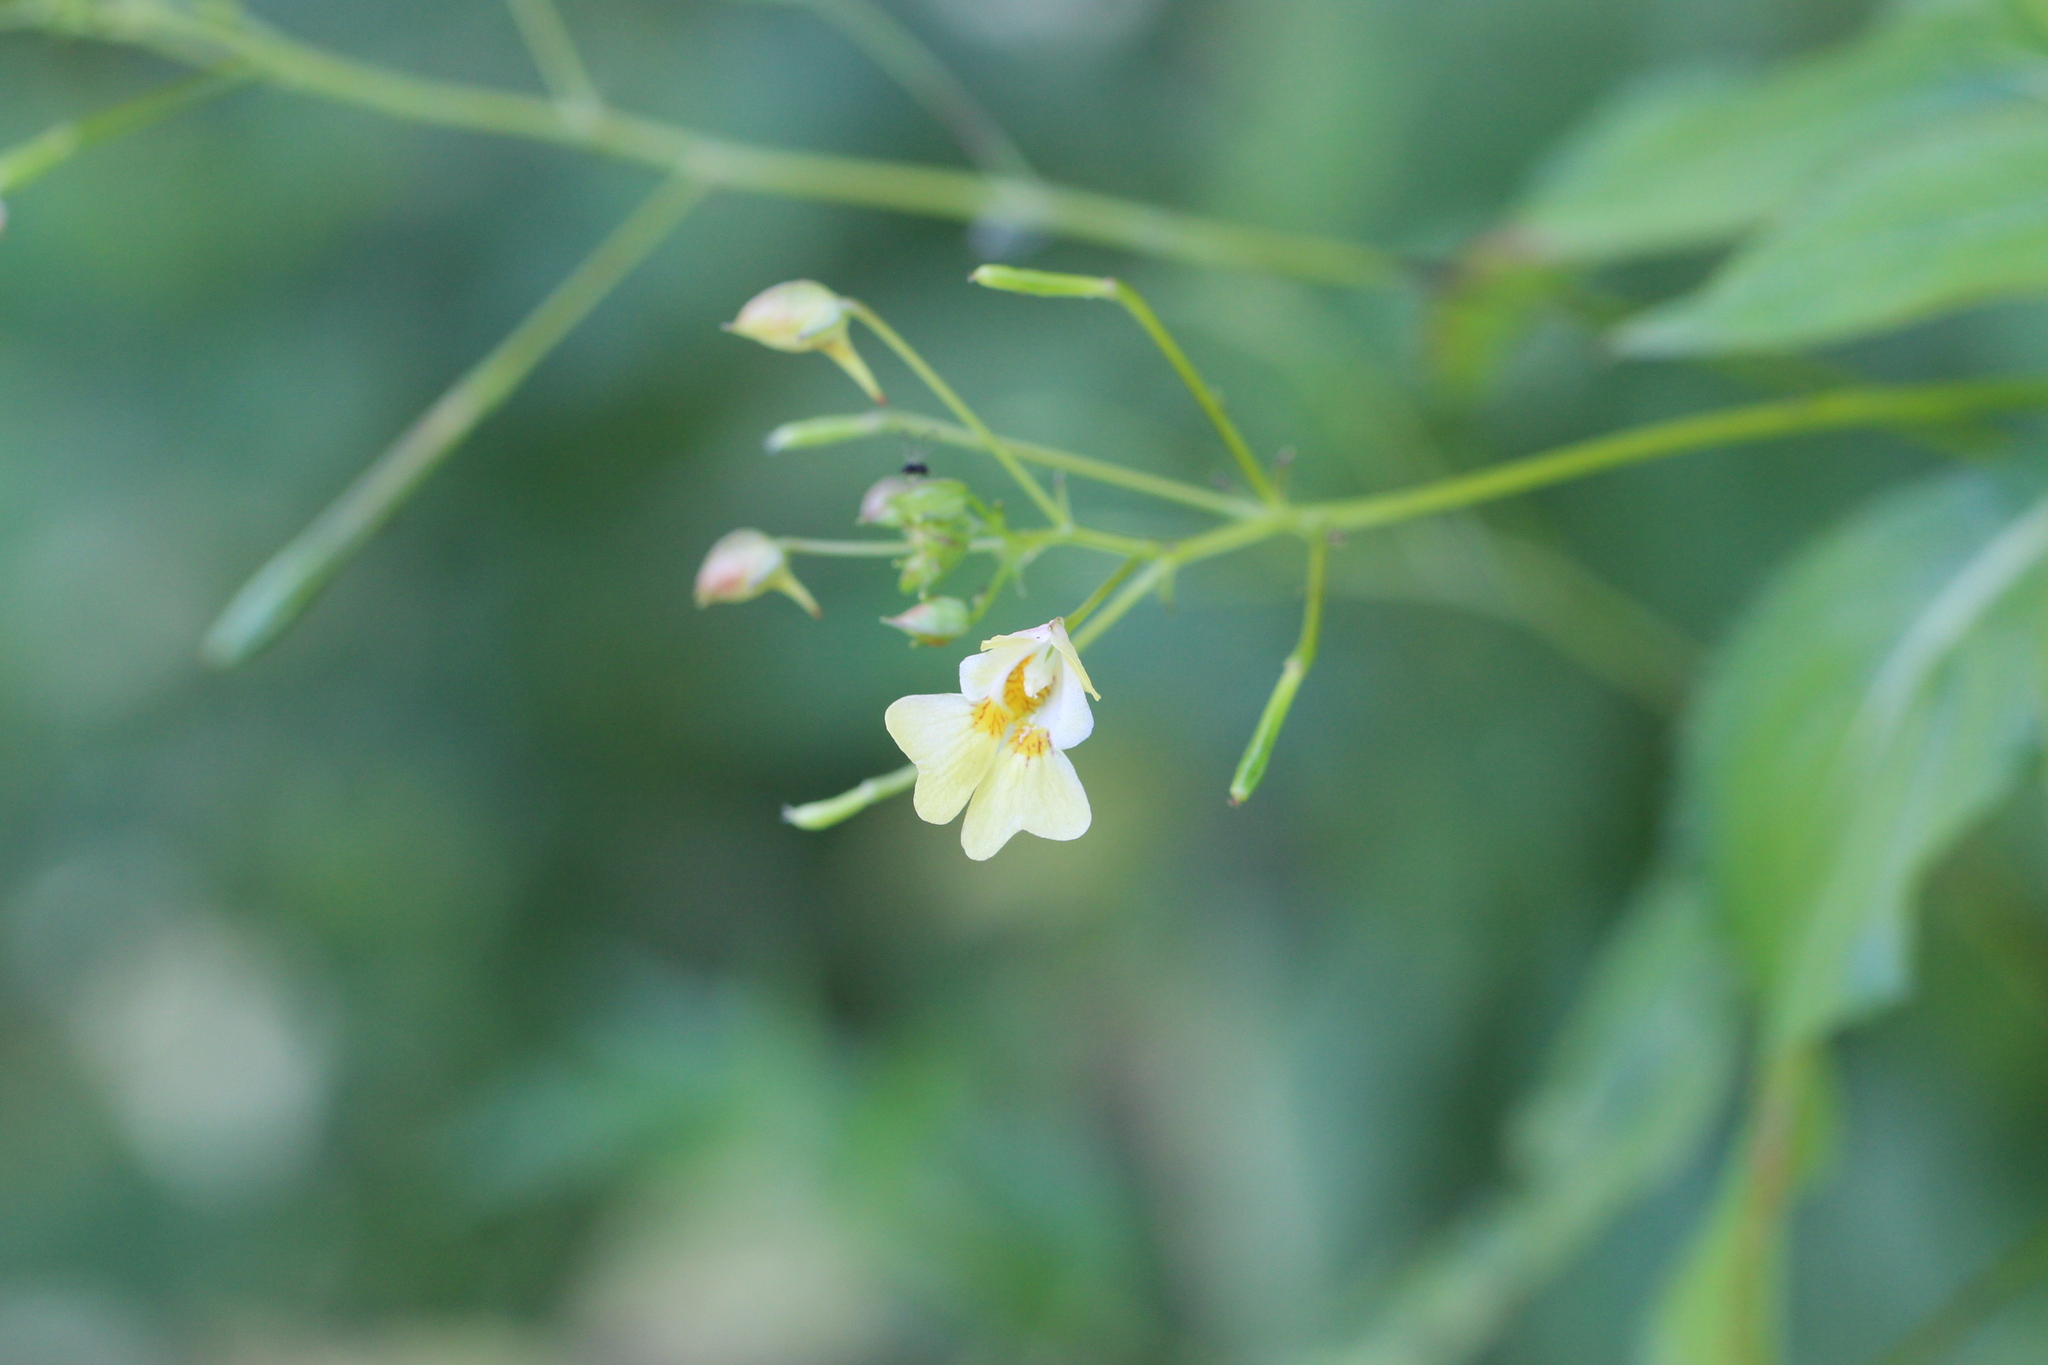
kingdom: Plantae
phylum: Tracheophyta
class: Magnoliopsida
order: Ericales
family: Balsaminaceae
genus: Impatiens
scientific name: Impatiens parviflora
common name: Small balsam
